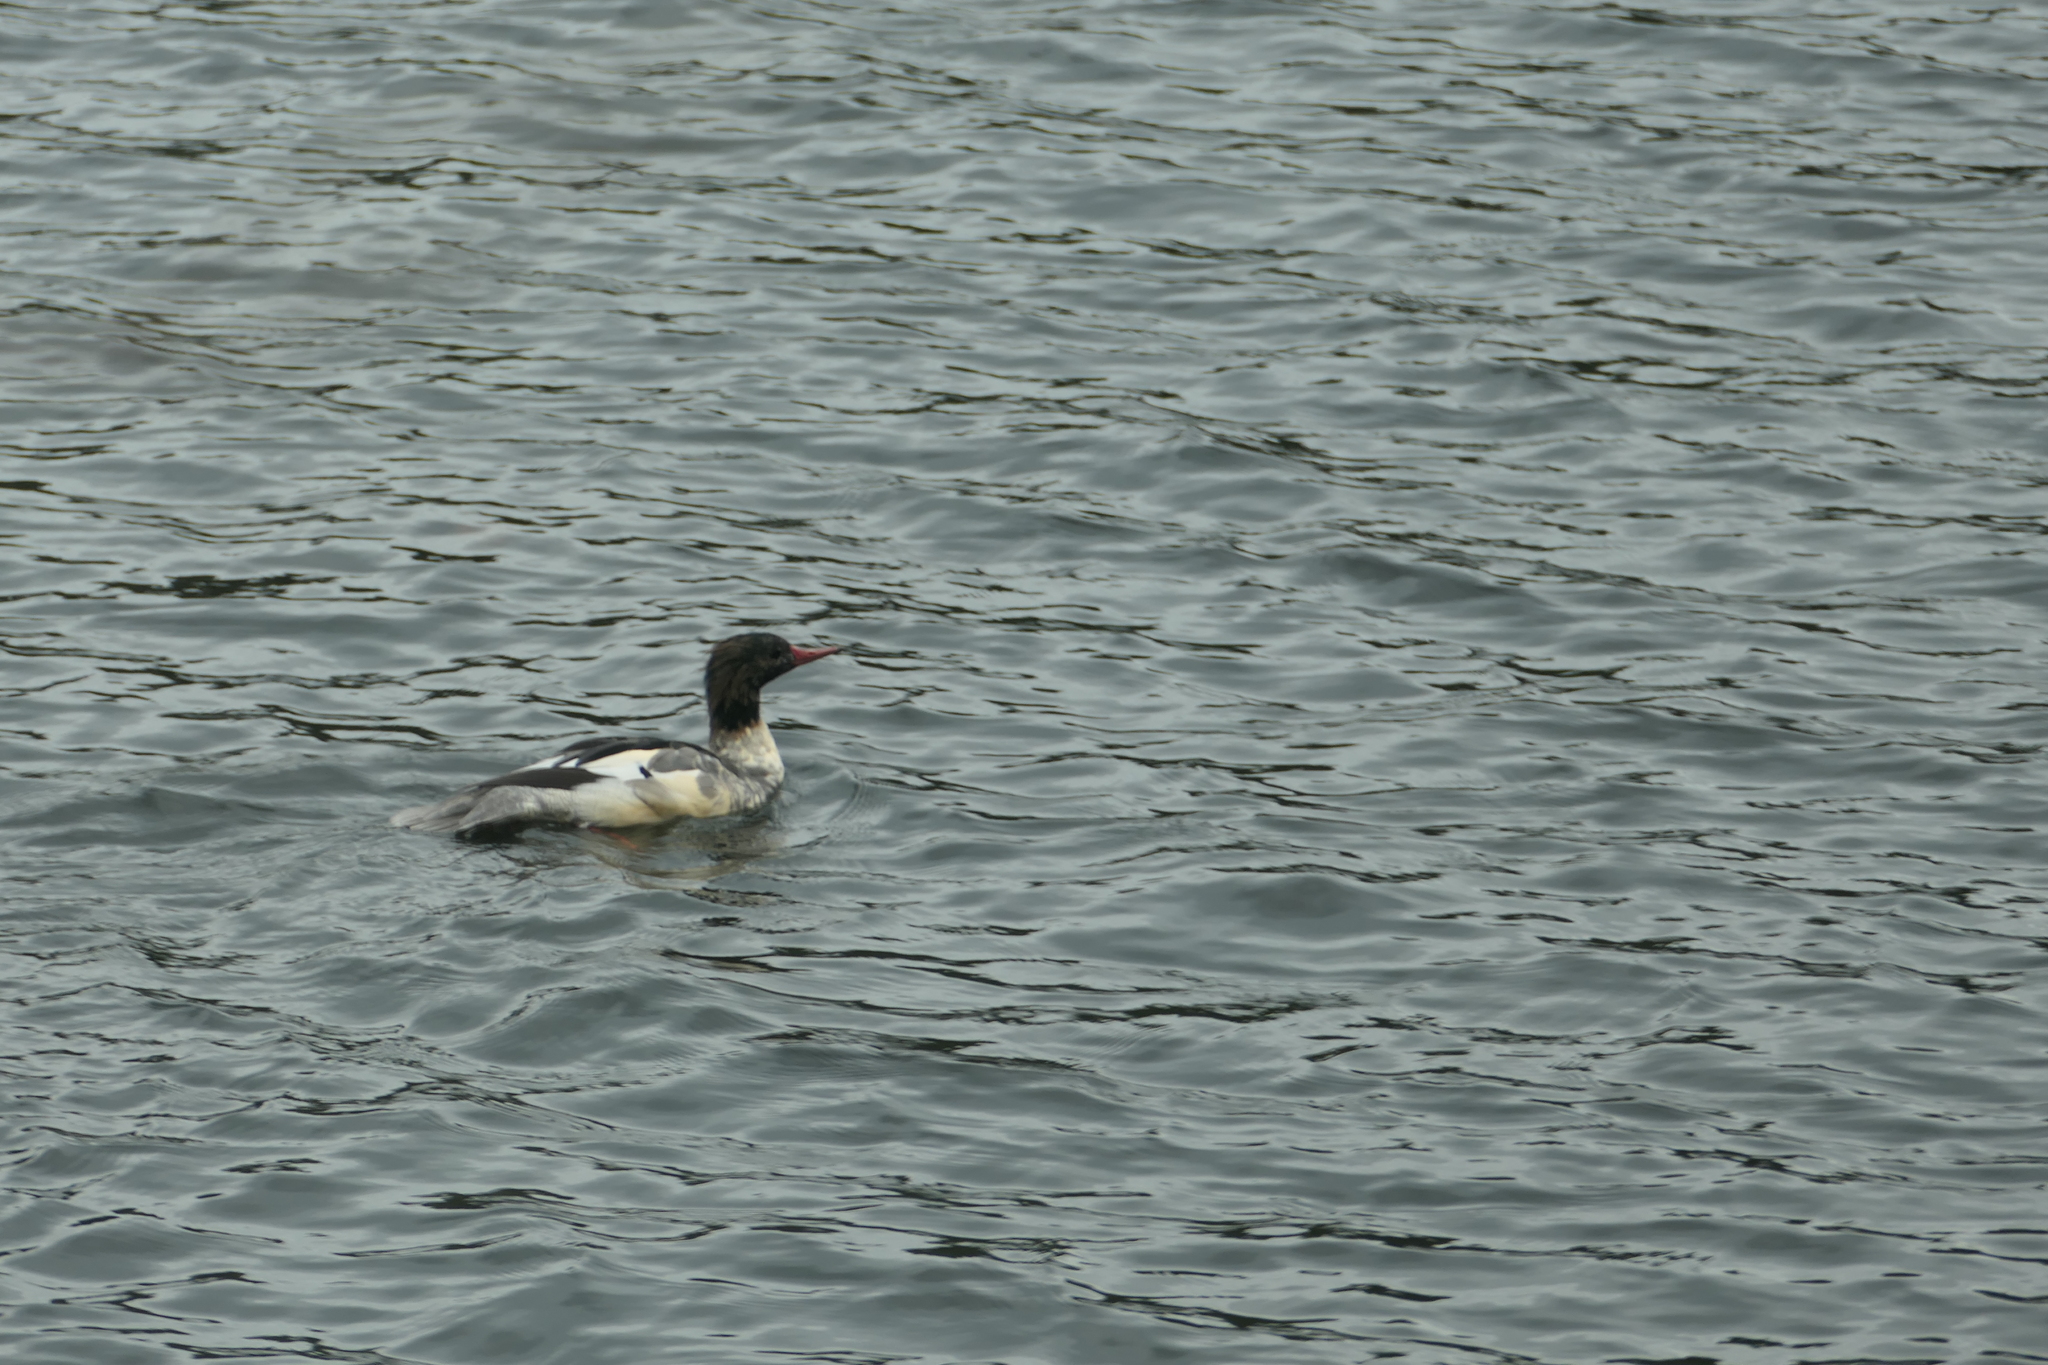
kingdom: Animalia
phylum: Chordata
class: Aves
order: Anseriformes
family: Anatidae
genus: Mergus
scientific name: Mergus merganser
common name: Common merganser
